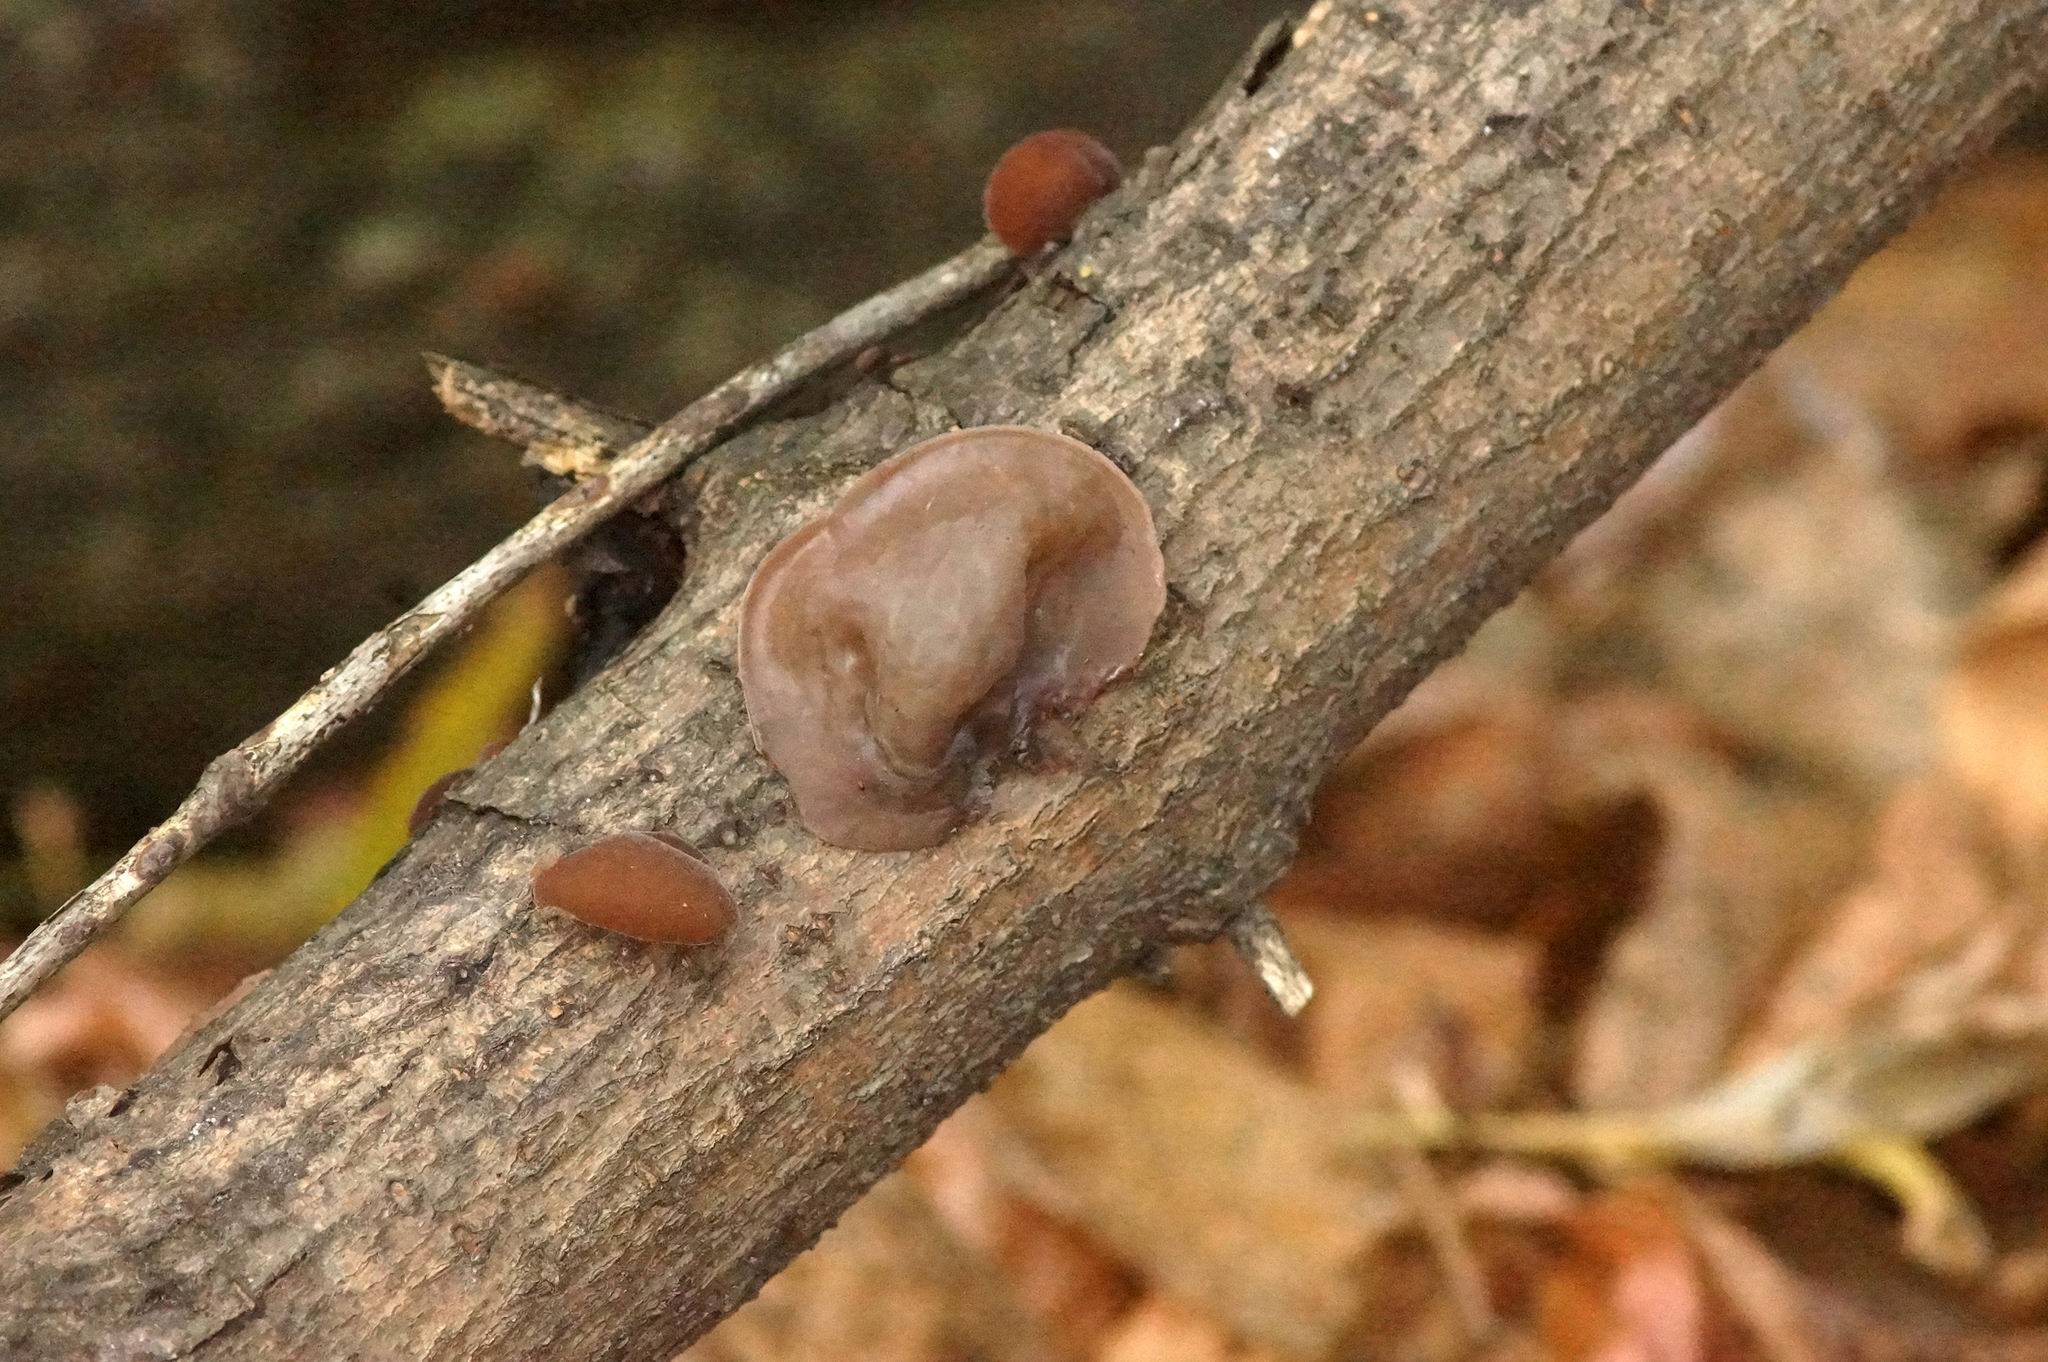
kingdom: Fungi
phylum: Basidiomycota
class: Agaricomycetes
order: Auriculariales
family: Auriculariaceae
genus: Auricularia
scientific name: Auricularia auricula-judae
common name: Jelly ear
